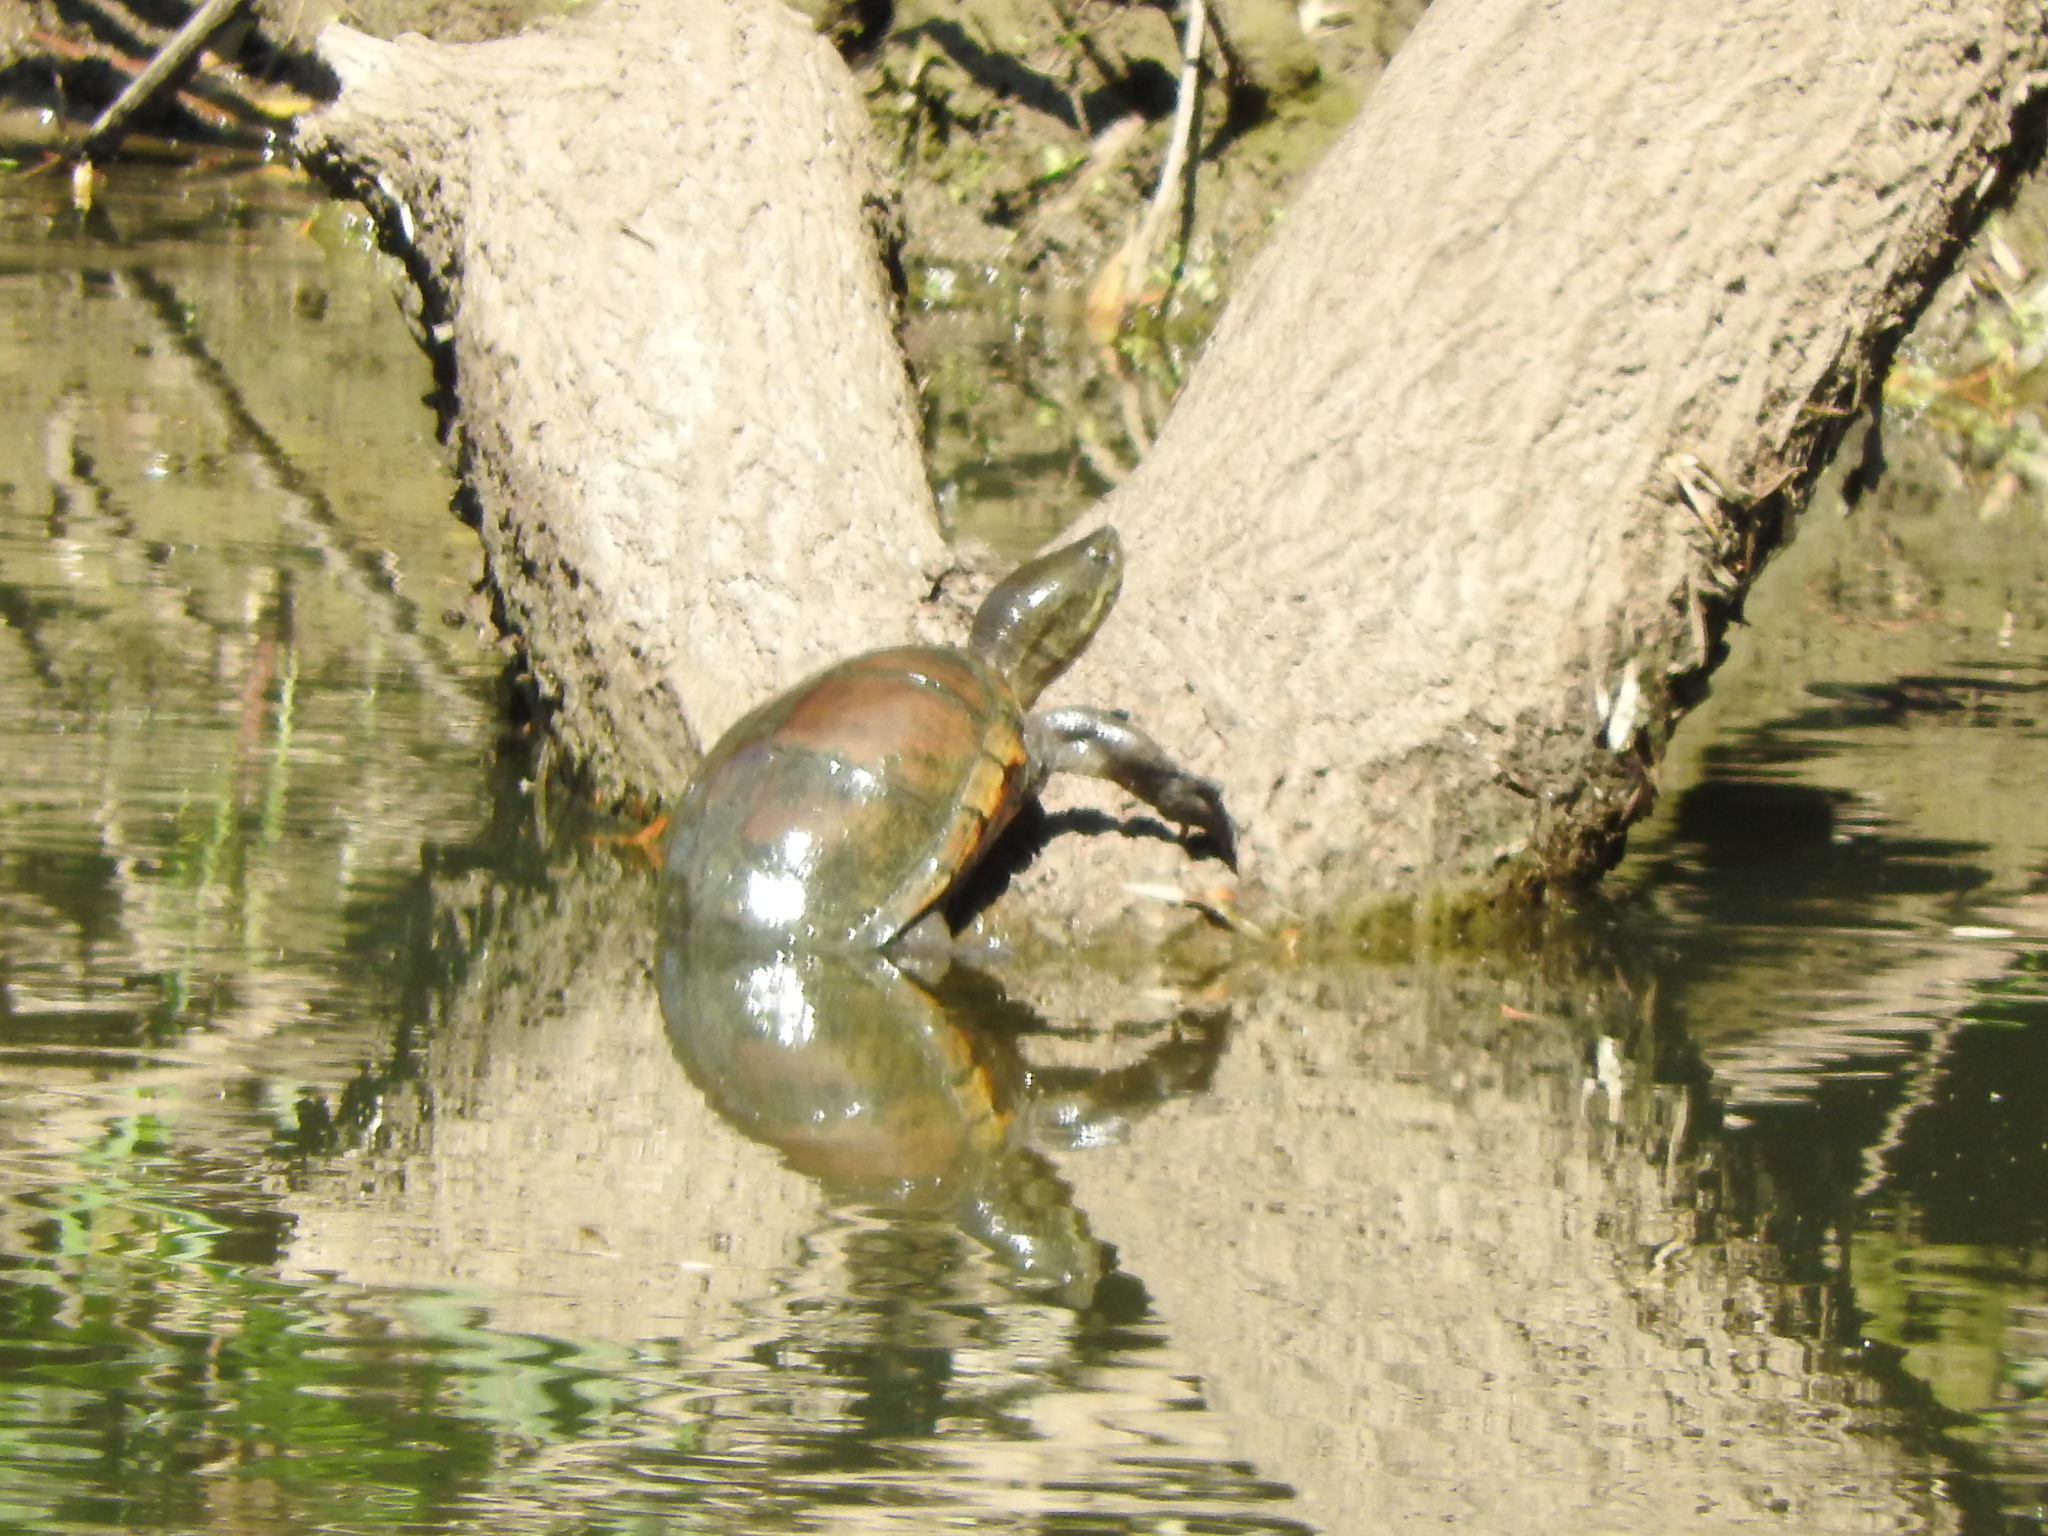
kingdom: Animalia
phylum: Chordata
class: Testudines
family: Kinosternidae
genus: Kinosternon
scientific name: Kinosternon integrum
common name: Mexican mud turtle
